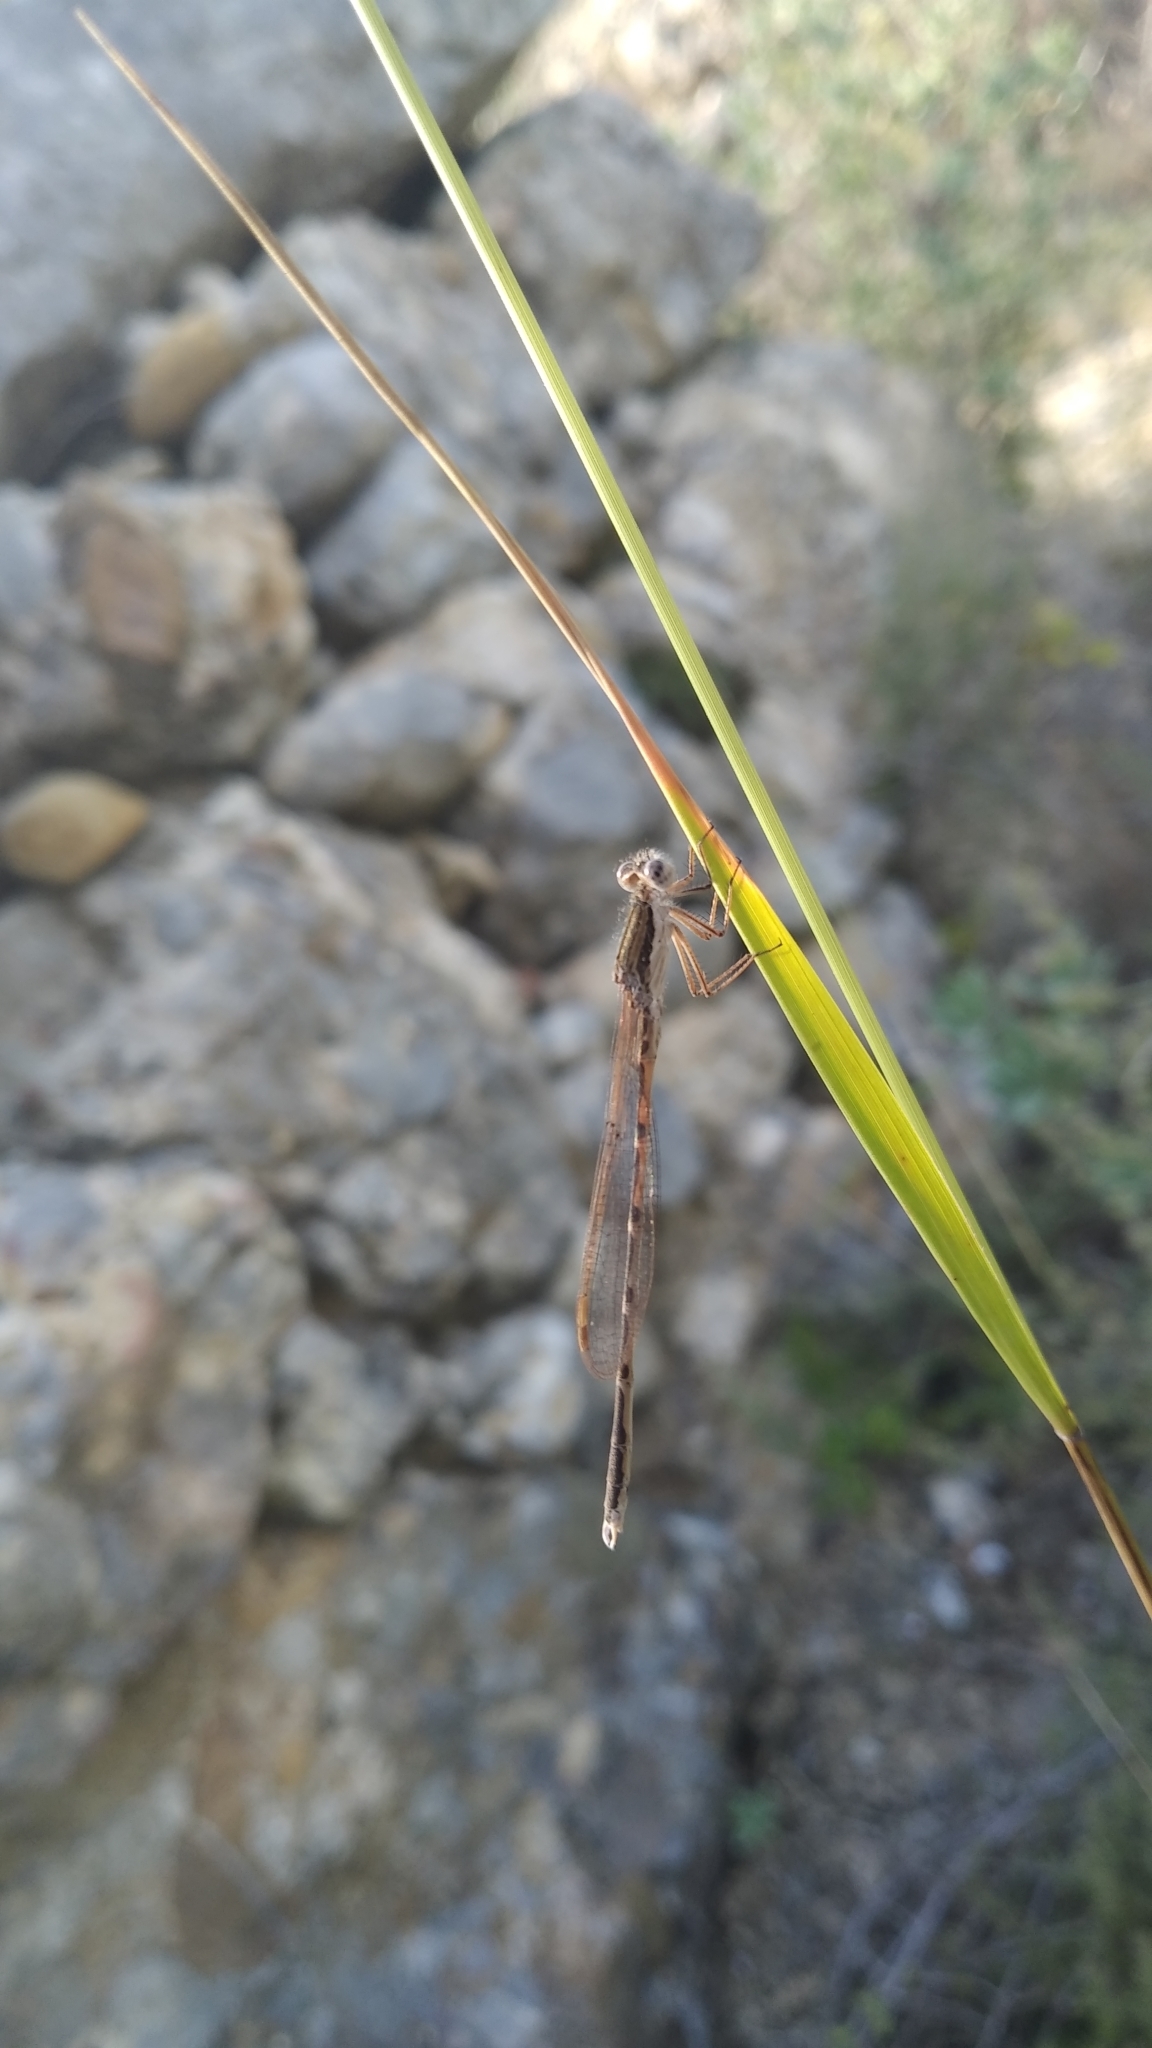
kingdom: Animalia
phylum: Arthropoda
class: Insecta
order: Odonata
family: Lestidae
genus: Sympecma
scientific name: Sympecma fusca
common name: Common winter damsel
